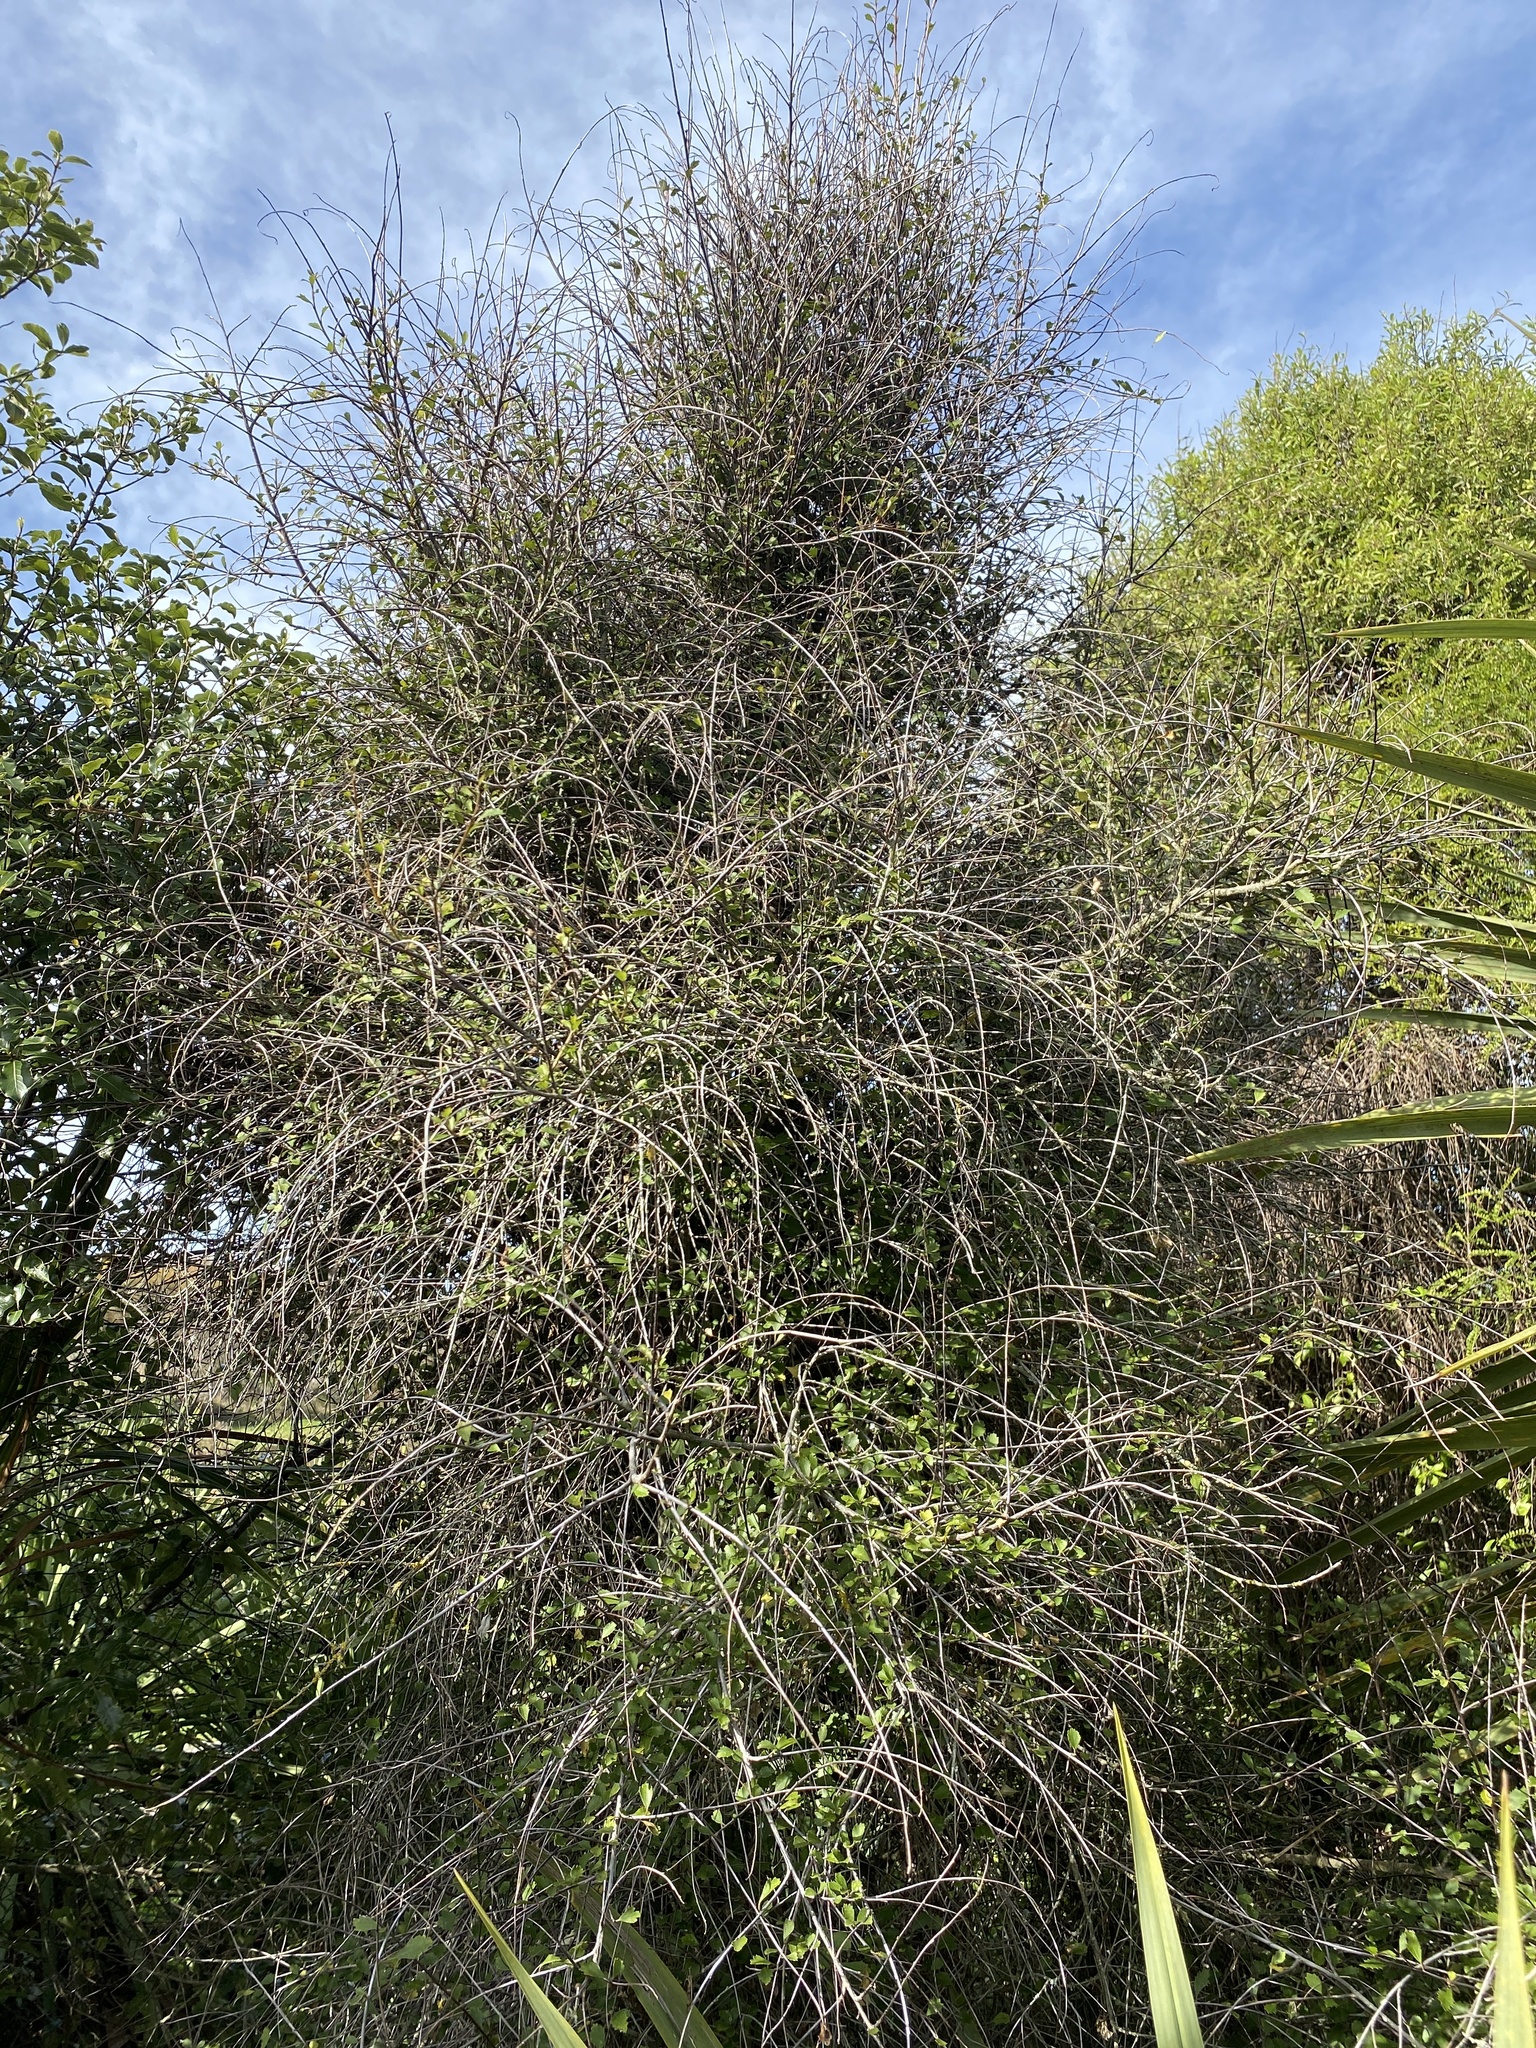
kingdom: Plantae
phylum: Tracheophyta
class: Magnoliopsida
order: Ericales
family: Primulaceae
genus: Myrsine
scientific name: Myrsine divaricata
